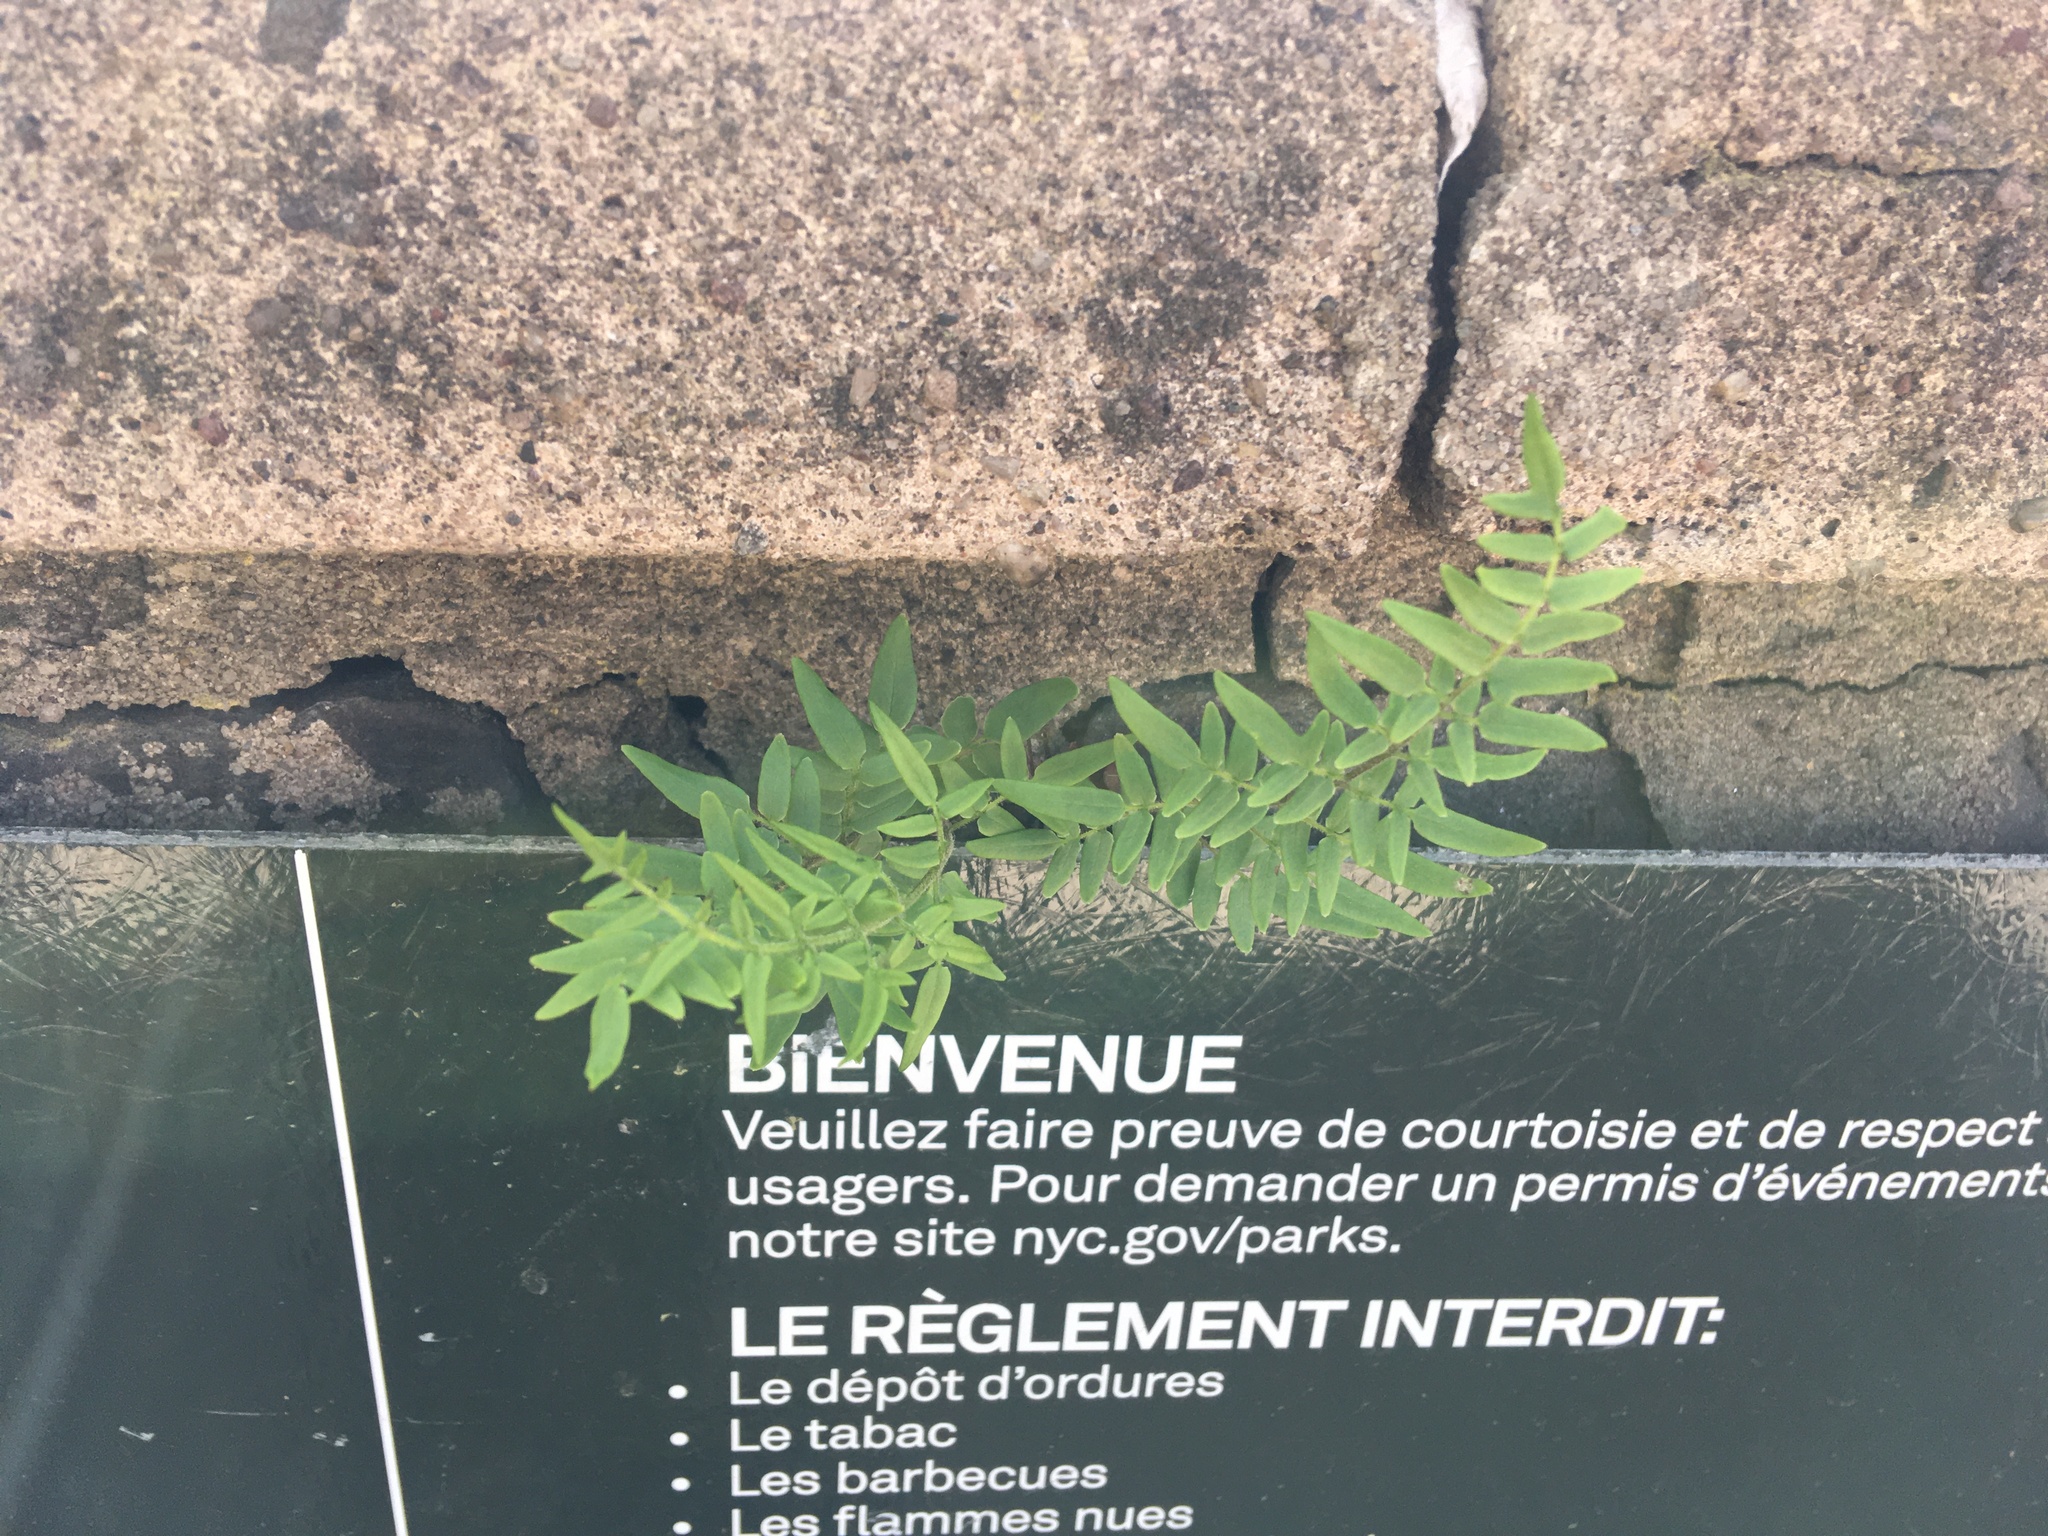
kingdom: Plantae
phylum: Tracheophyta
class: Polypodiopsida
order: Polypodiales
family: Pteridaceae
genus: Pellaea
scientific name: Pellaea atropurpurea
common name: Hairy cliffbrake
